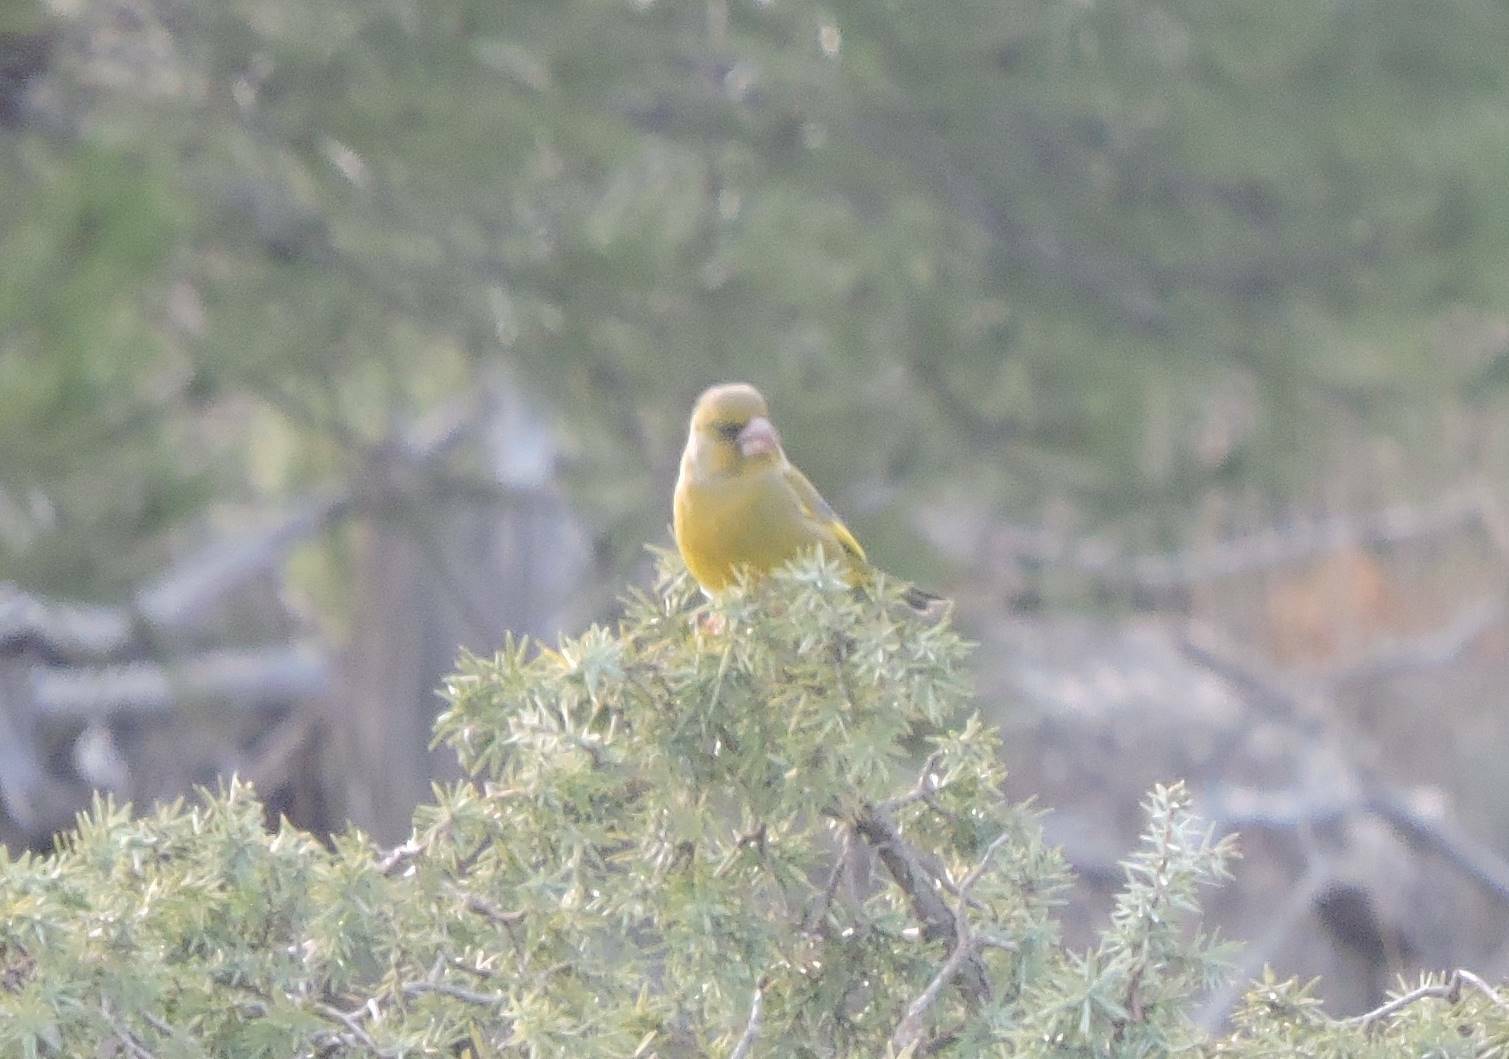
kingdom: Plantae
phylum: Tracheophyta
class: Liliopsida
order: Poales
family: Poaceae
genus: Chloris
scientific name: Chloris chloris
